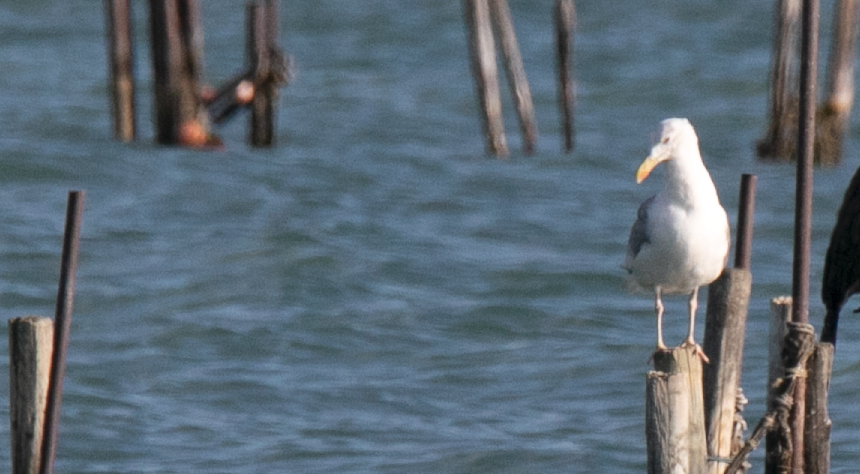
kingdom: Animalia
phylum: Chordata
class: Aves
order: Charadriiformes
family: Laridae
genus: Larus
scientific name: Larus cachinnans
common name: Caspian gull
